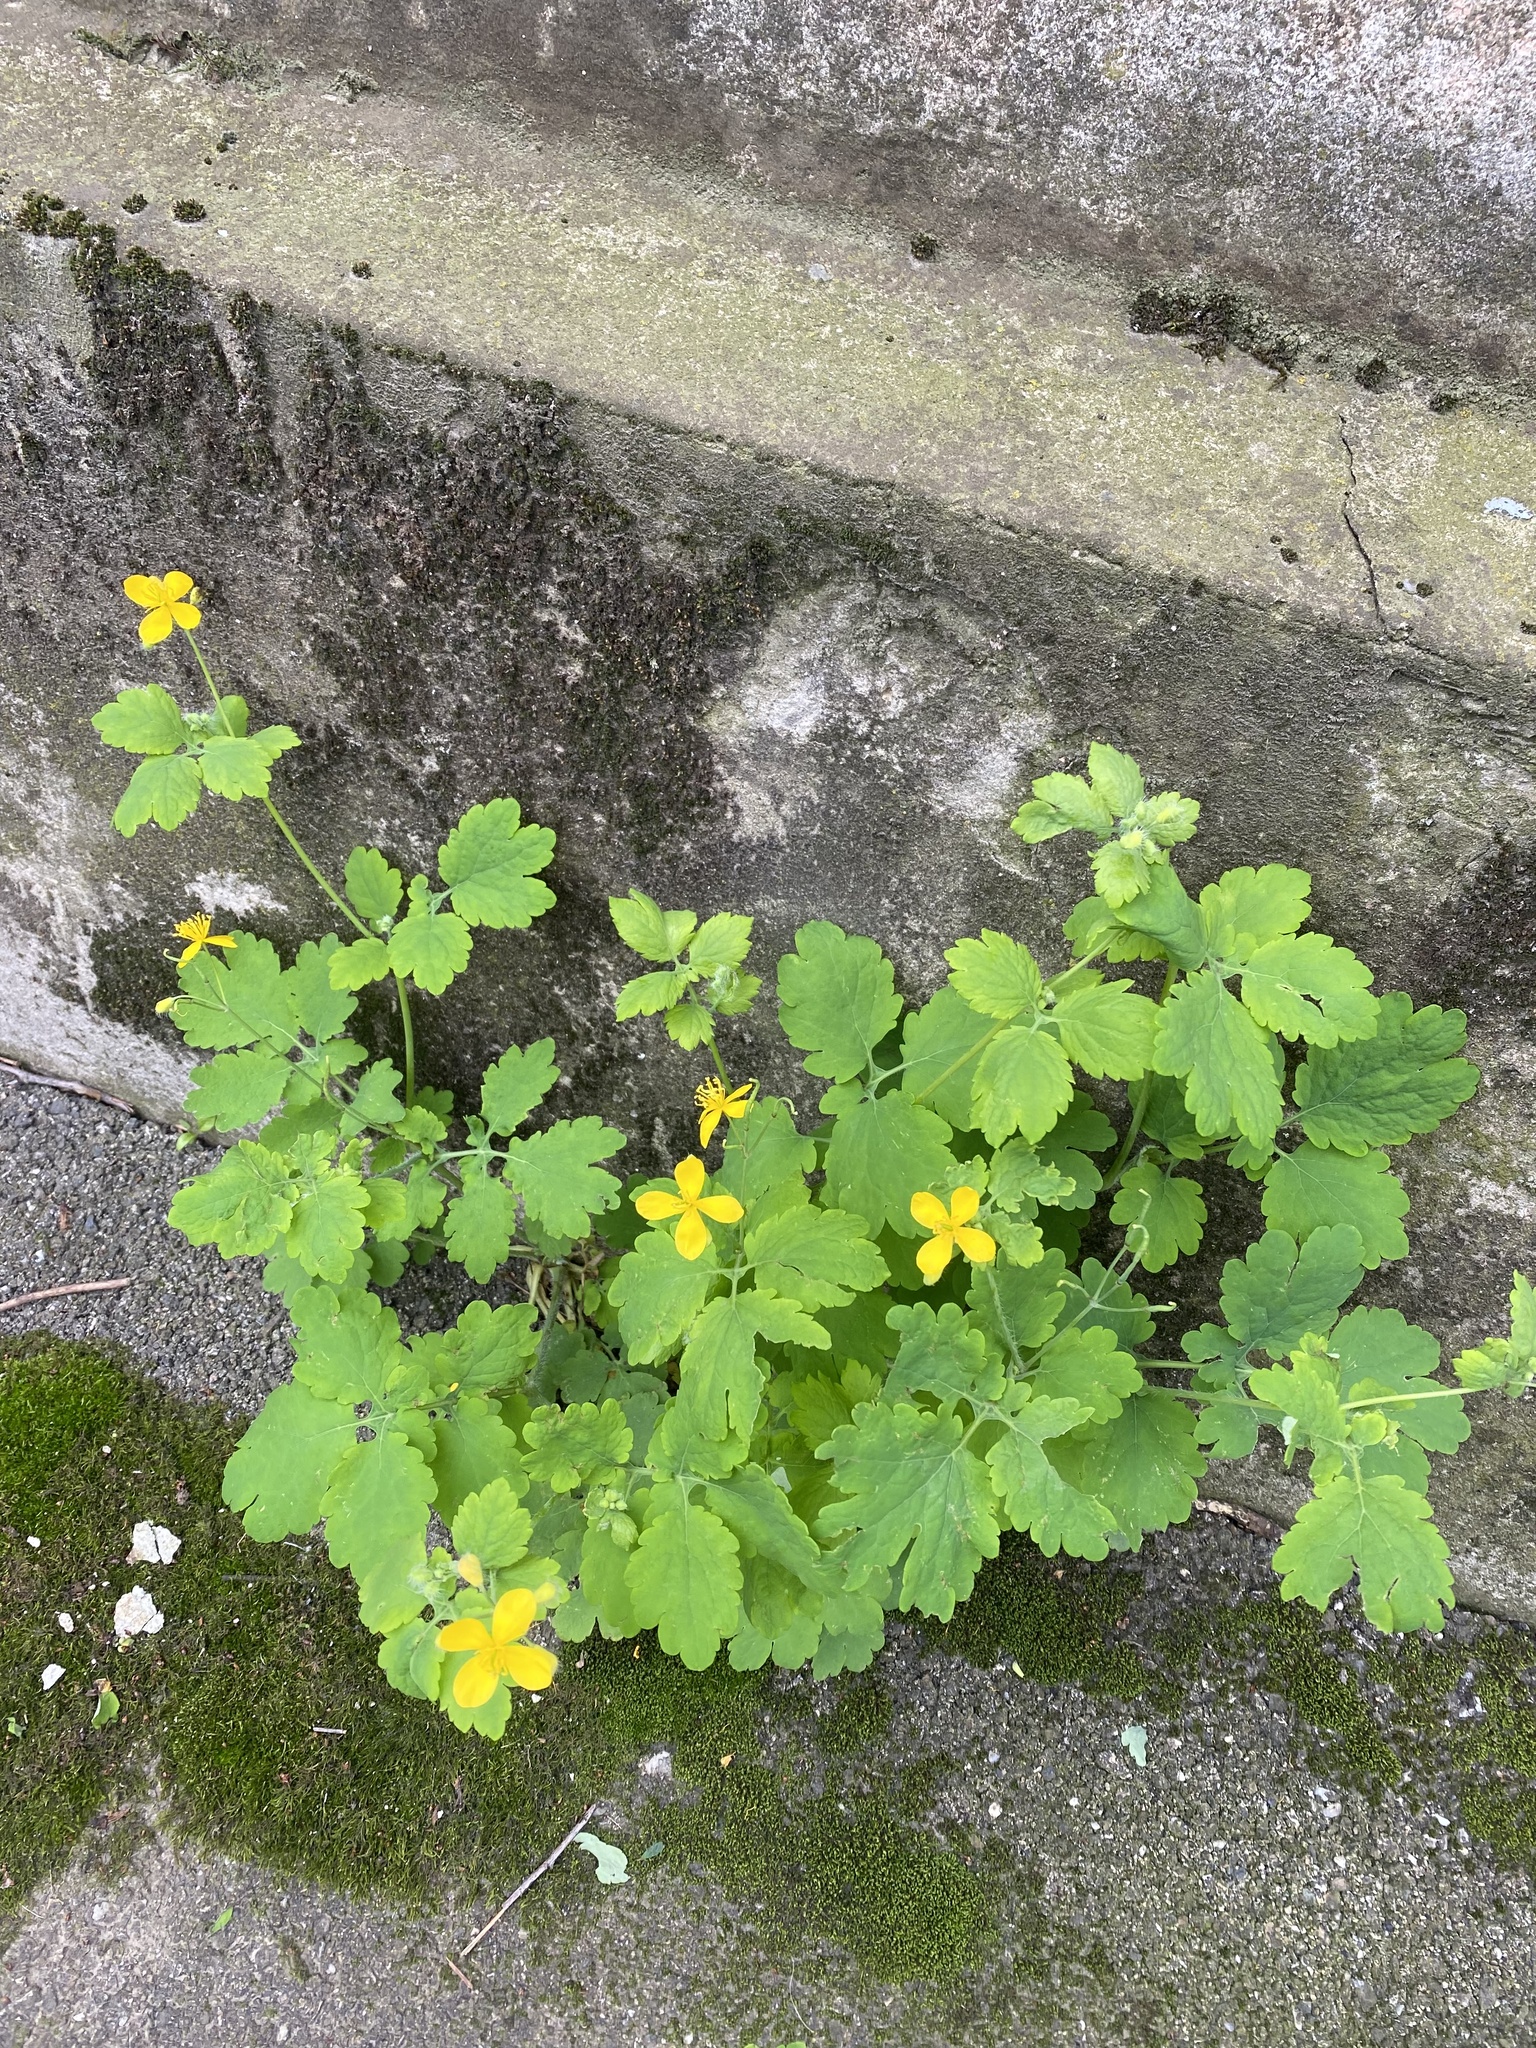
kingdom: Plantae
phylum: Tracheophyta
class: Magnoliopsida
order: Ranunculales
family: Papaveraceae
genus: Chelidonium
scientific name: Chelidonium majus
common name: Greater celandine
